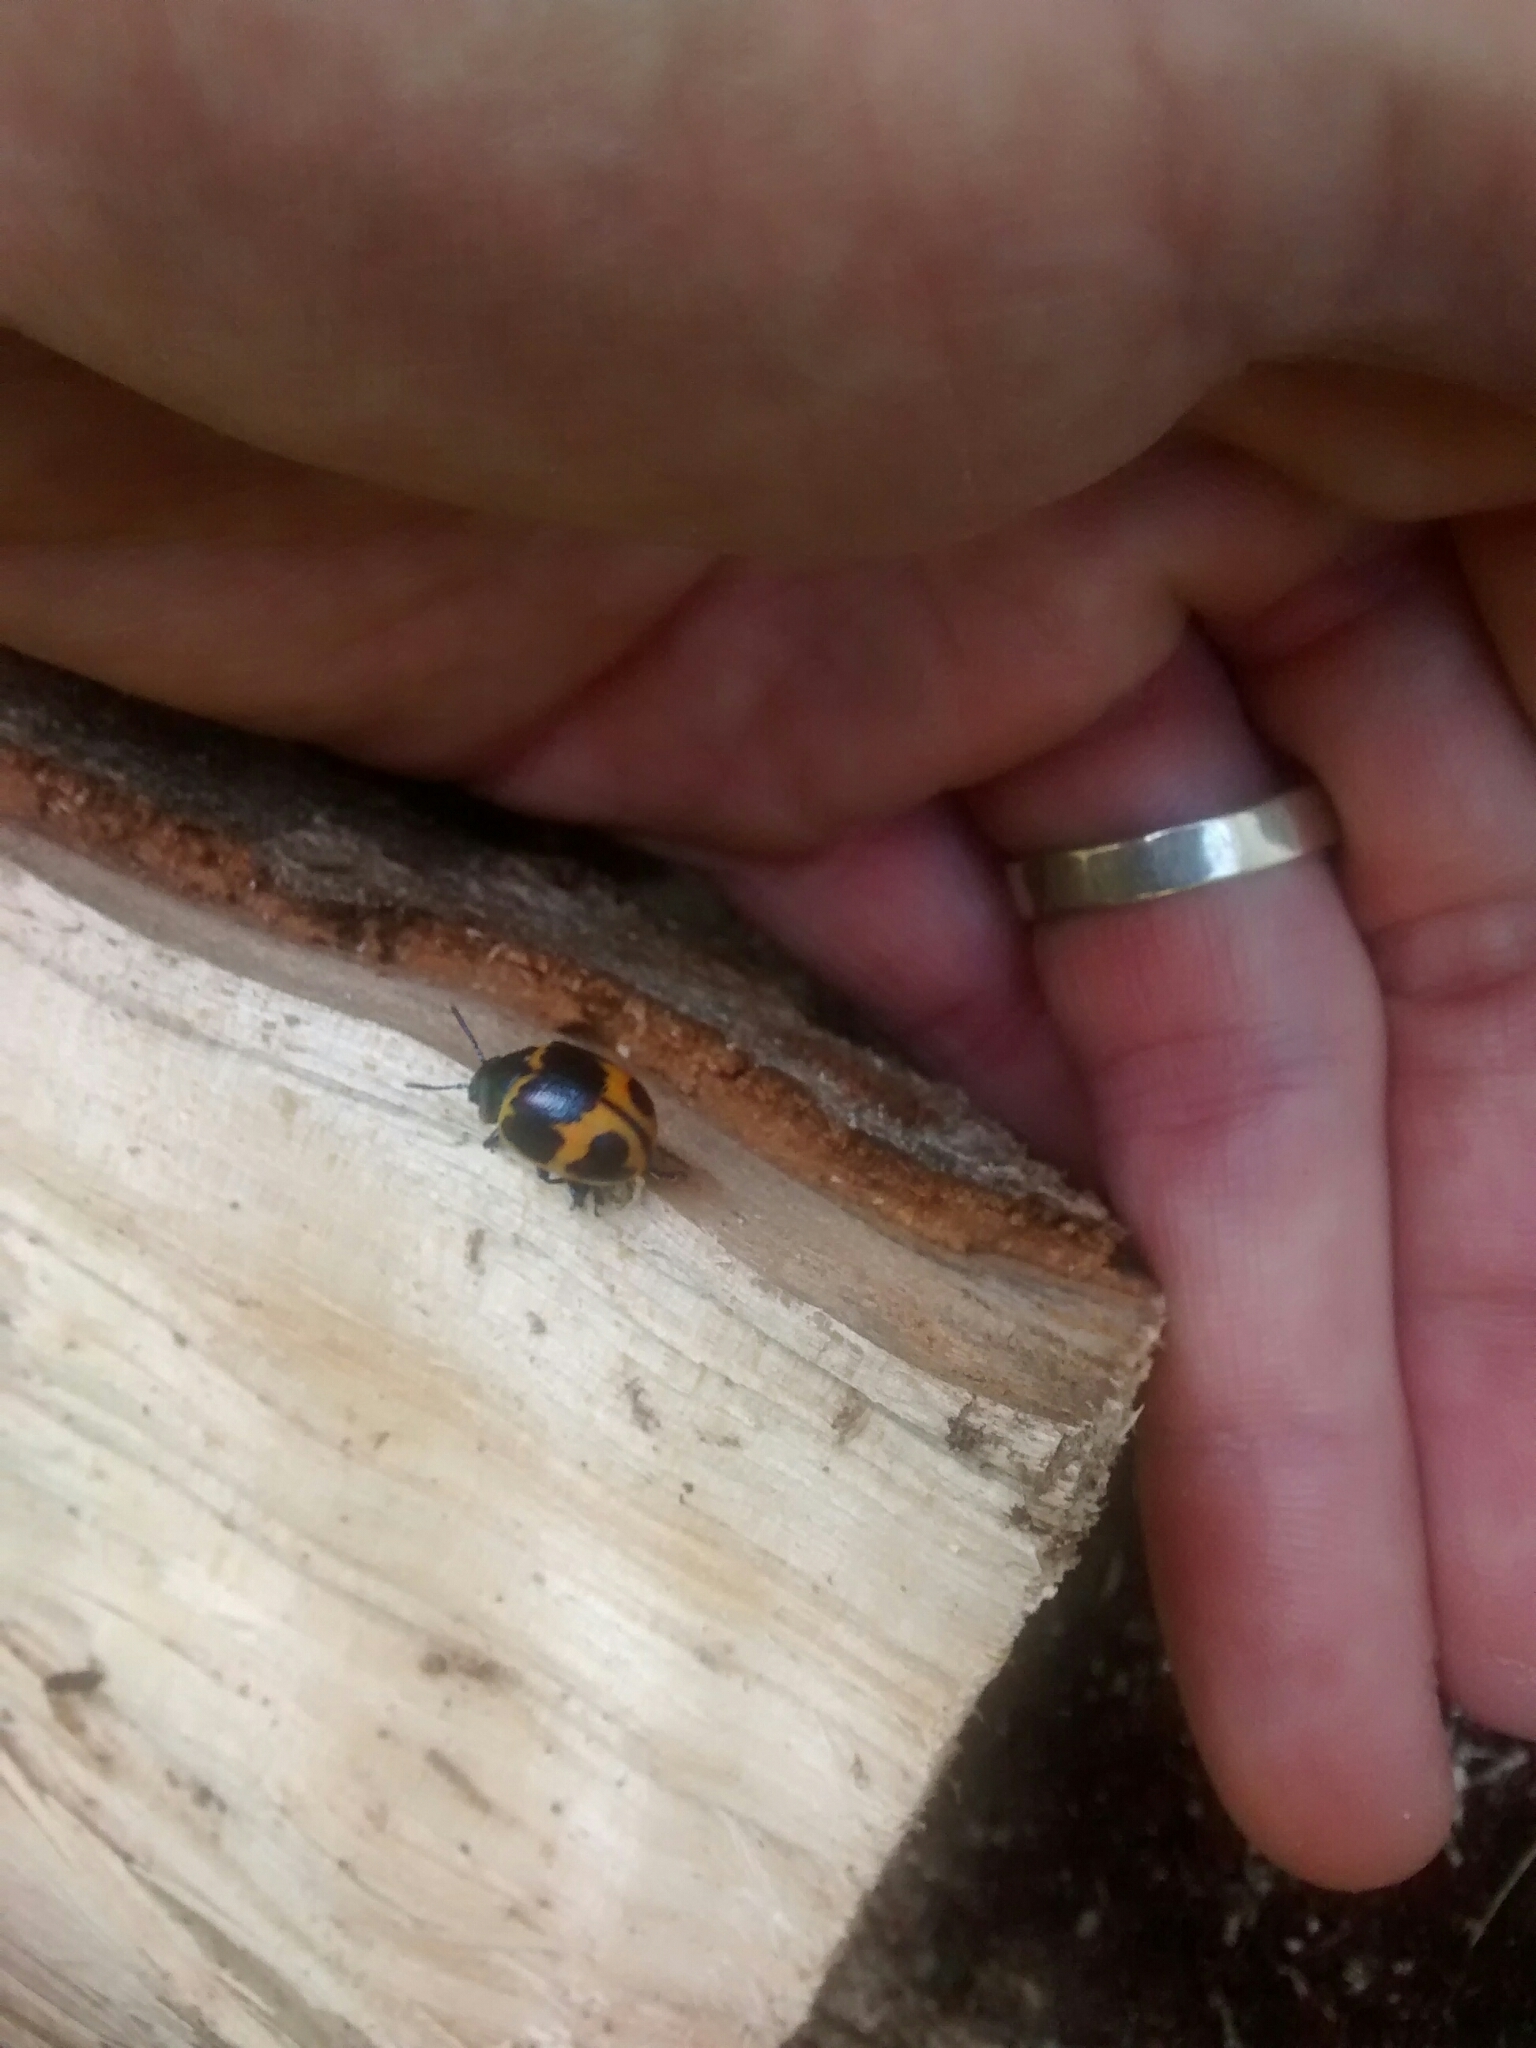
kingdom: Animalia
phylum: Arthropoda
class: Insecta
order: Coleoptera
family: Chrysomelidae
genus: Labidomera
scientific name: Labidomera clivicollis
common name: Swamp milkweed leaf beetle
